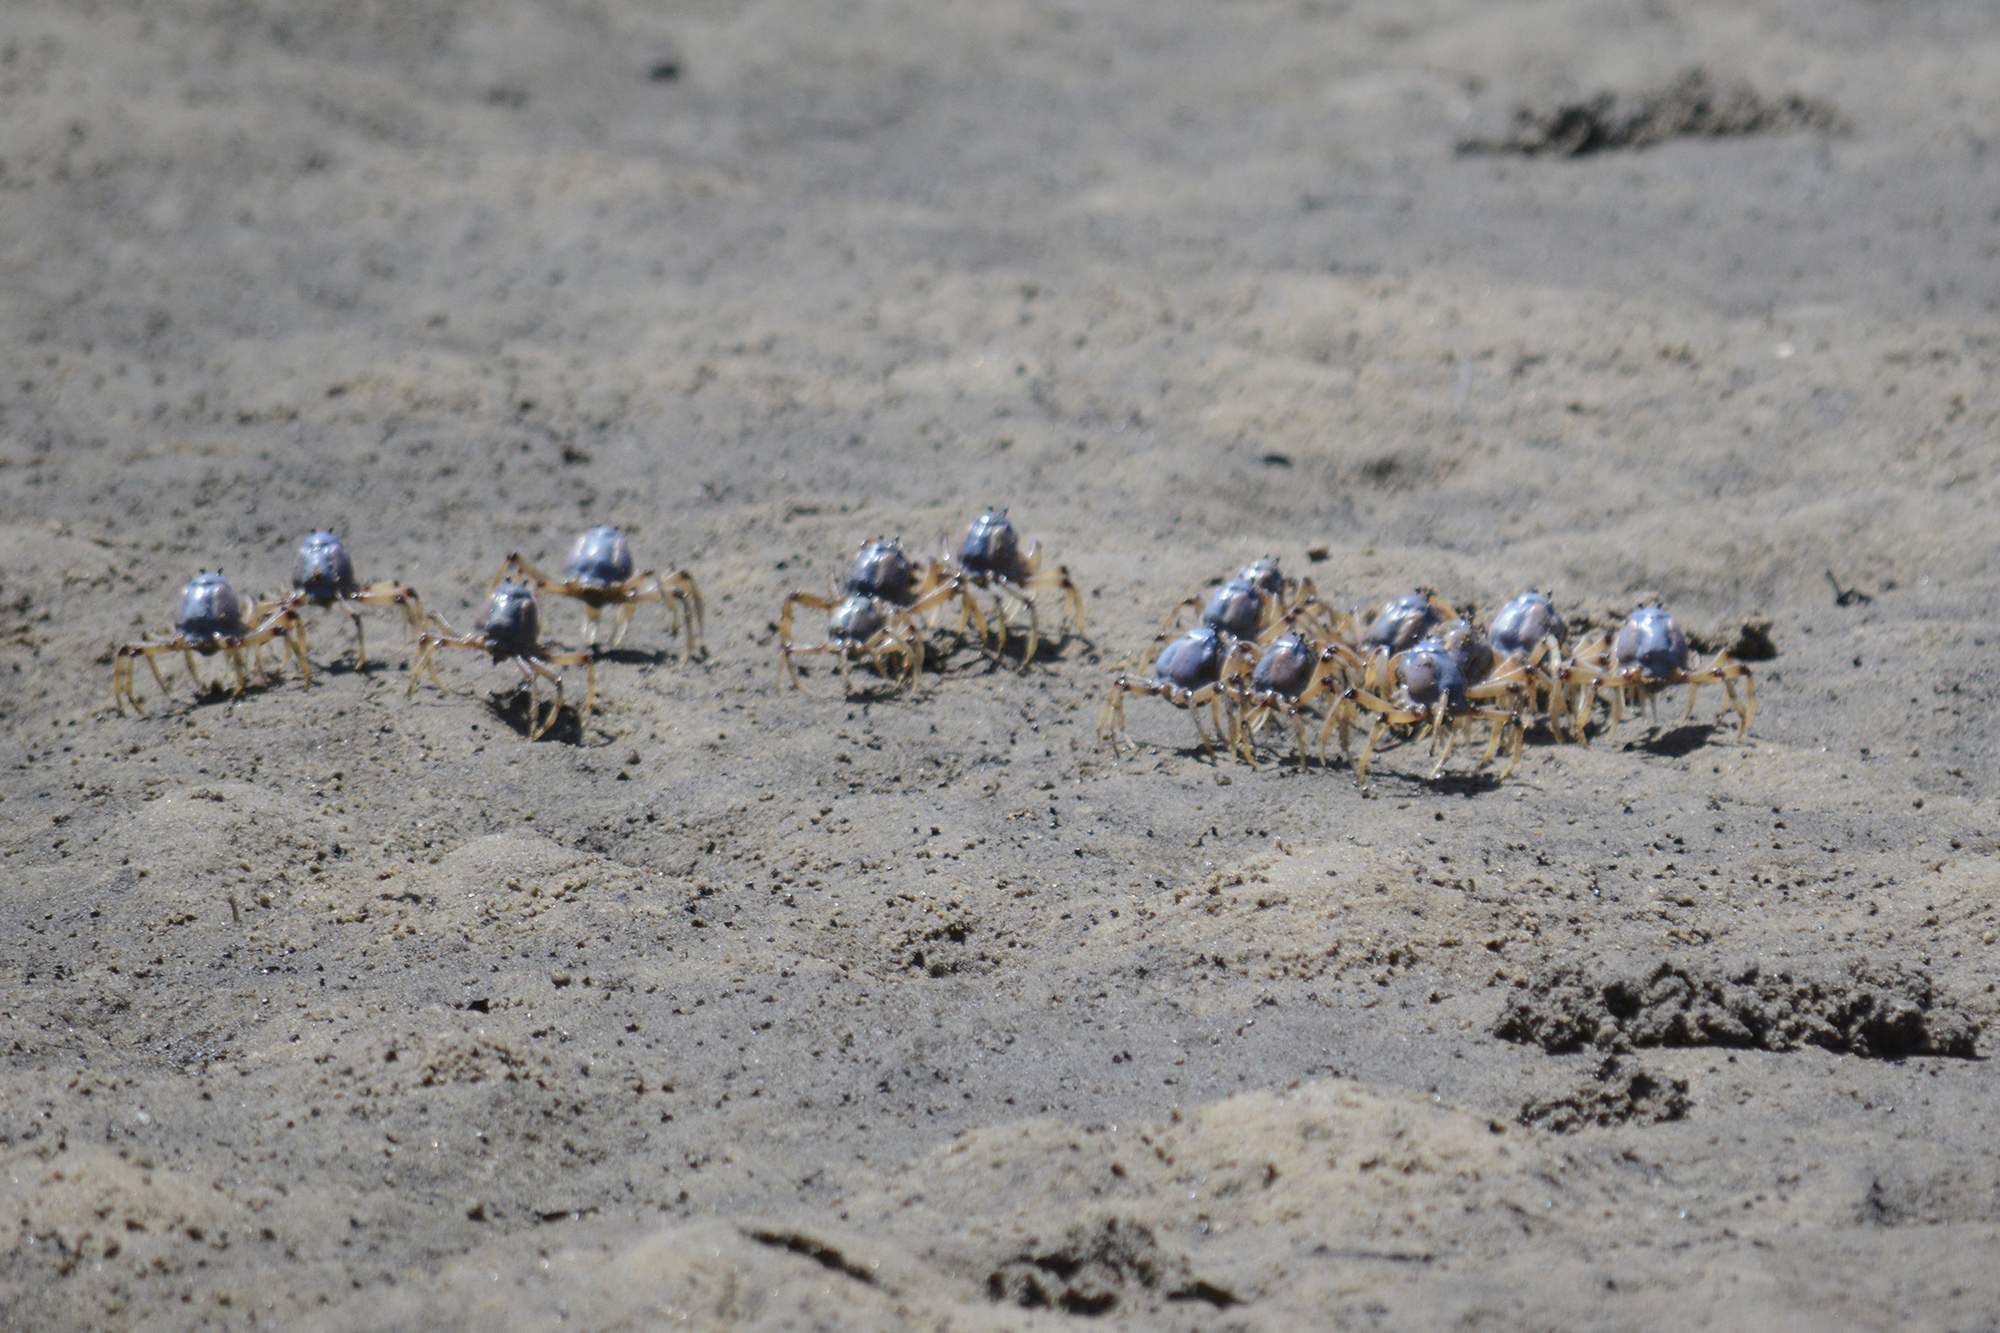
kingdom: Animalia
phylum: Arthropoda
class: Malacostraca
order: Decapoda
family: Mictyridae
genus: Mictyris
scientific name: Mictyris longicarpus
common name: Light-blue soldier crab
